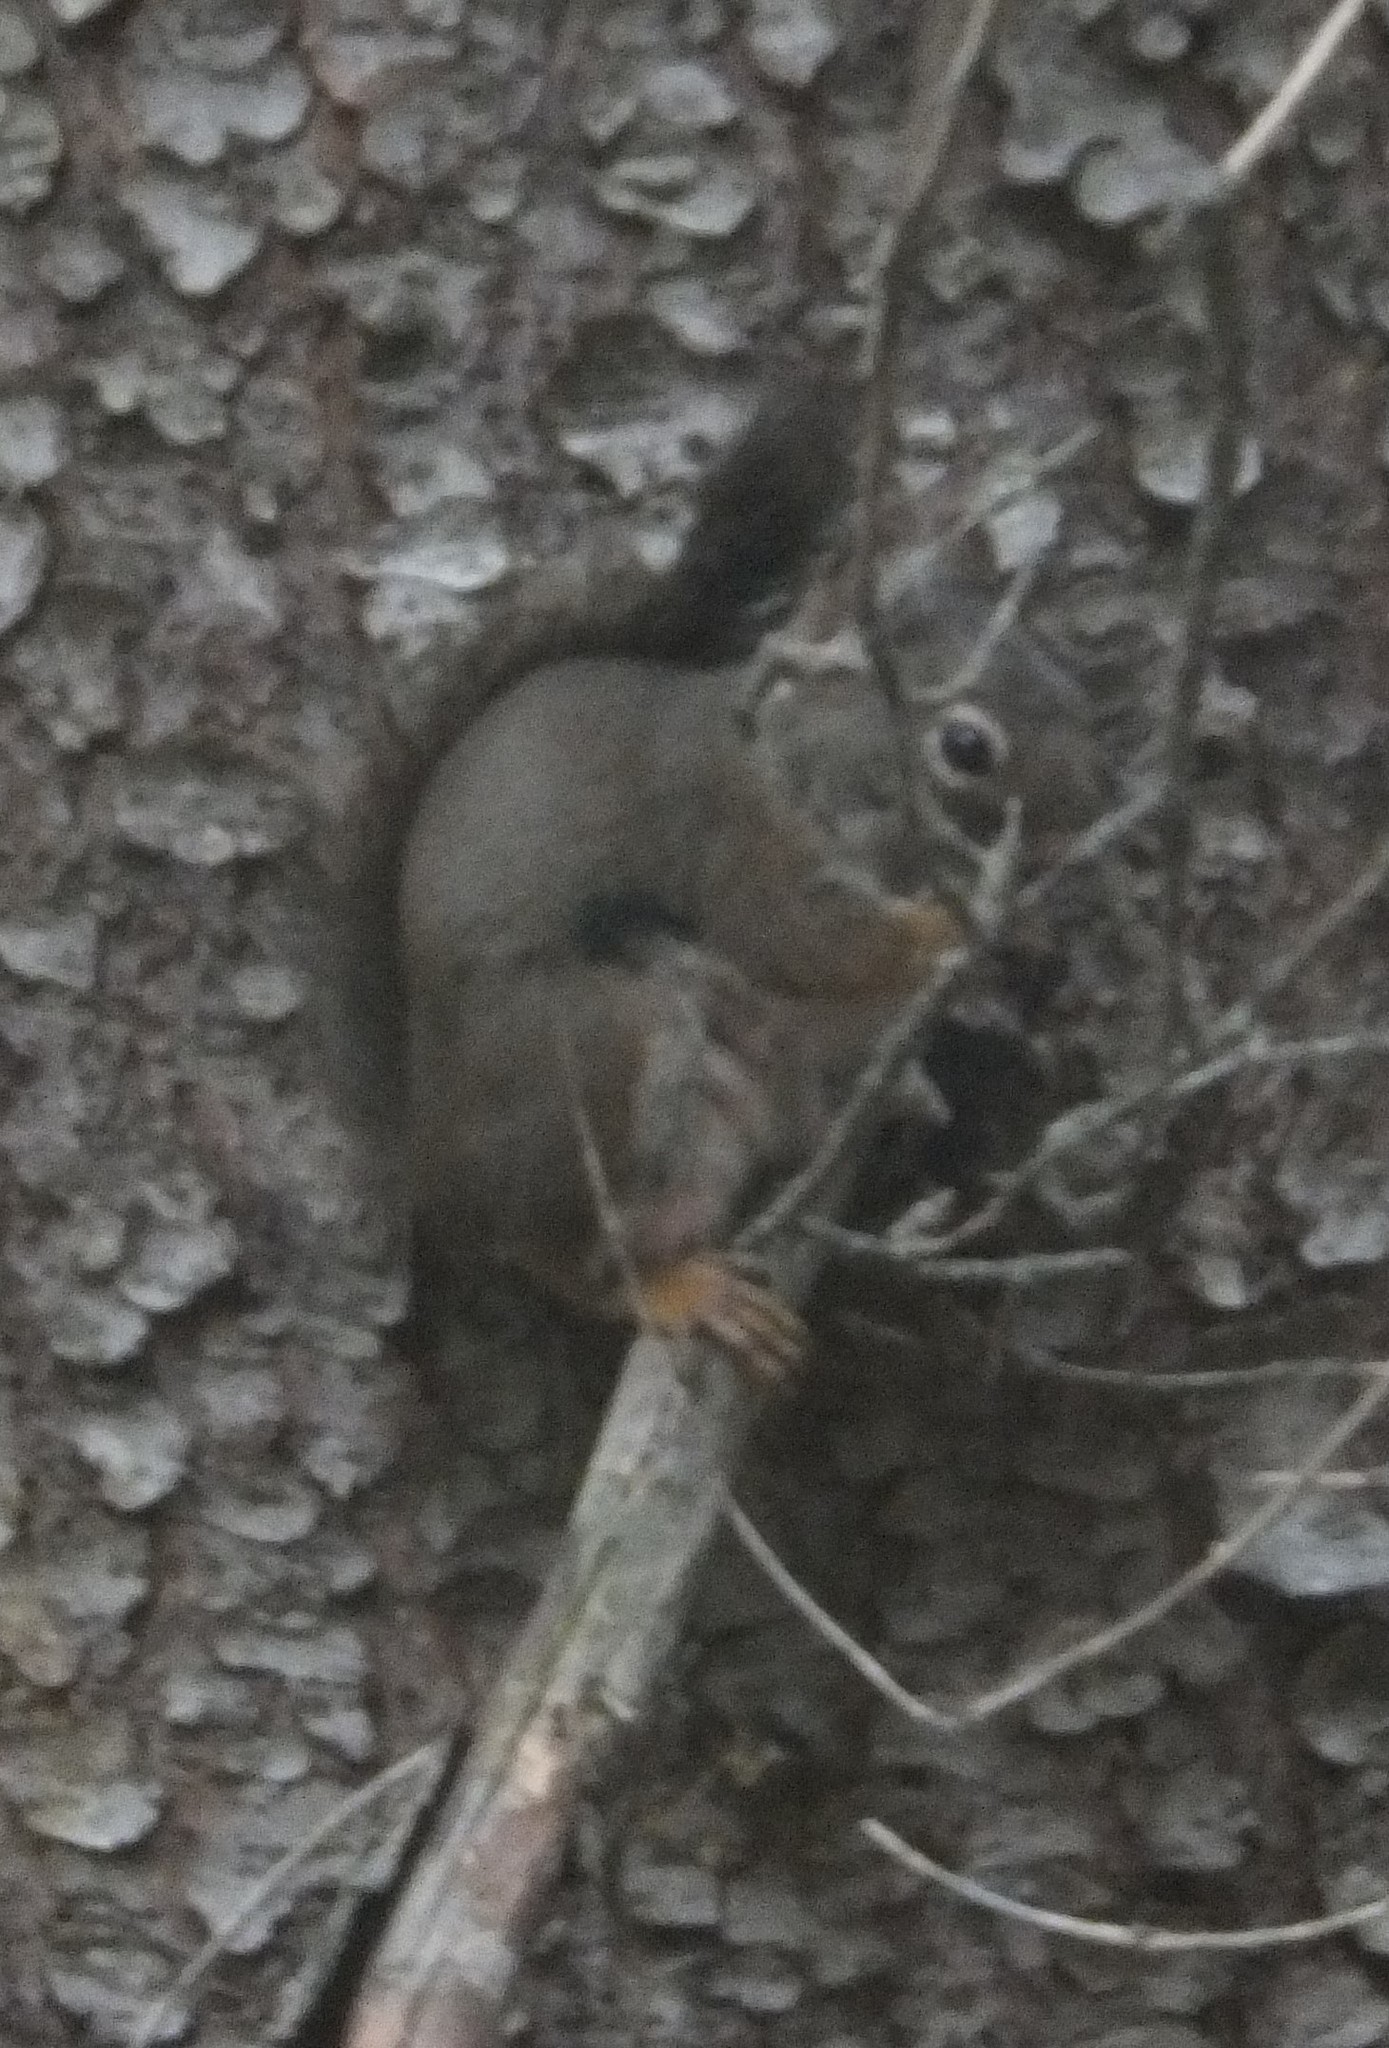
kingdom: Animalia
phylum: Chordata
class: Mammalia
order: Rodentia
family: Sciuridae
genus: Tamiasciurus
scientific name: Tamiasciurus hudsonicus
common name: Red squirrel
